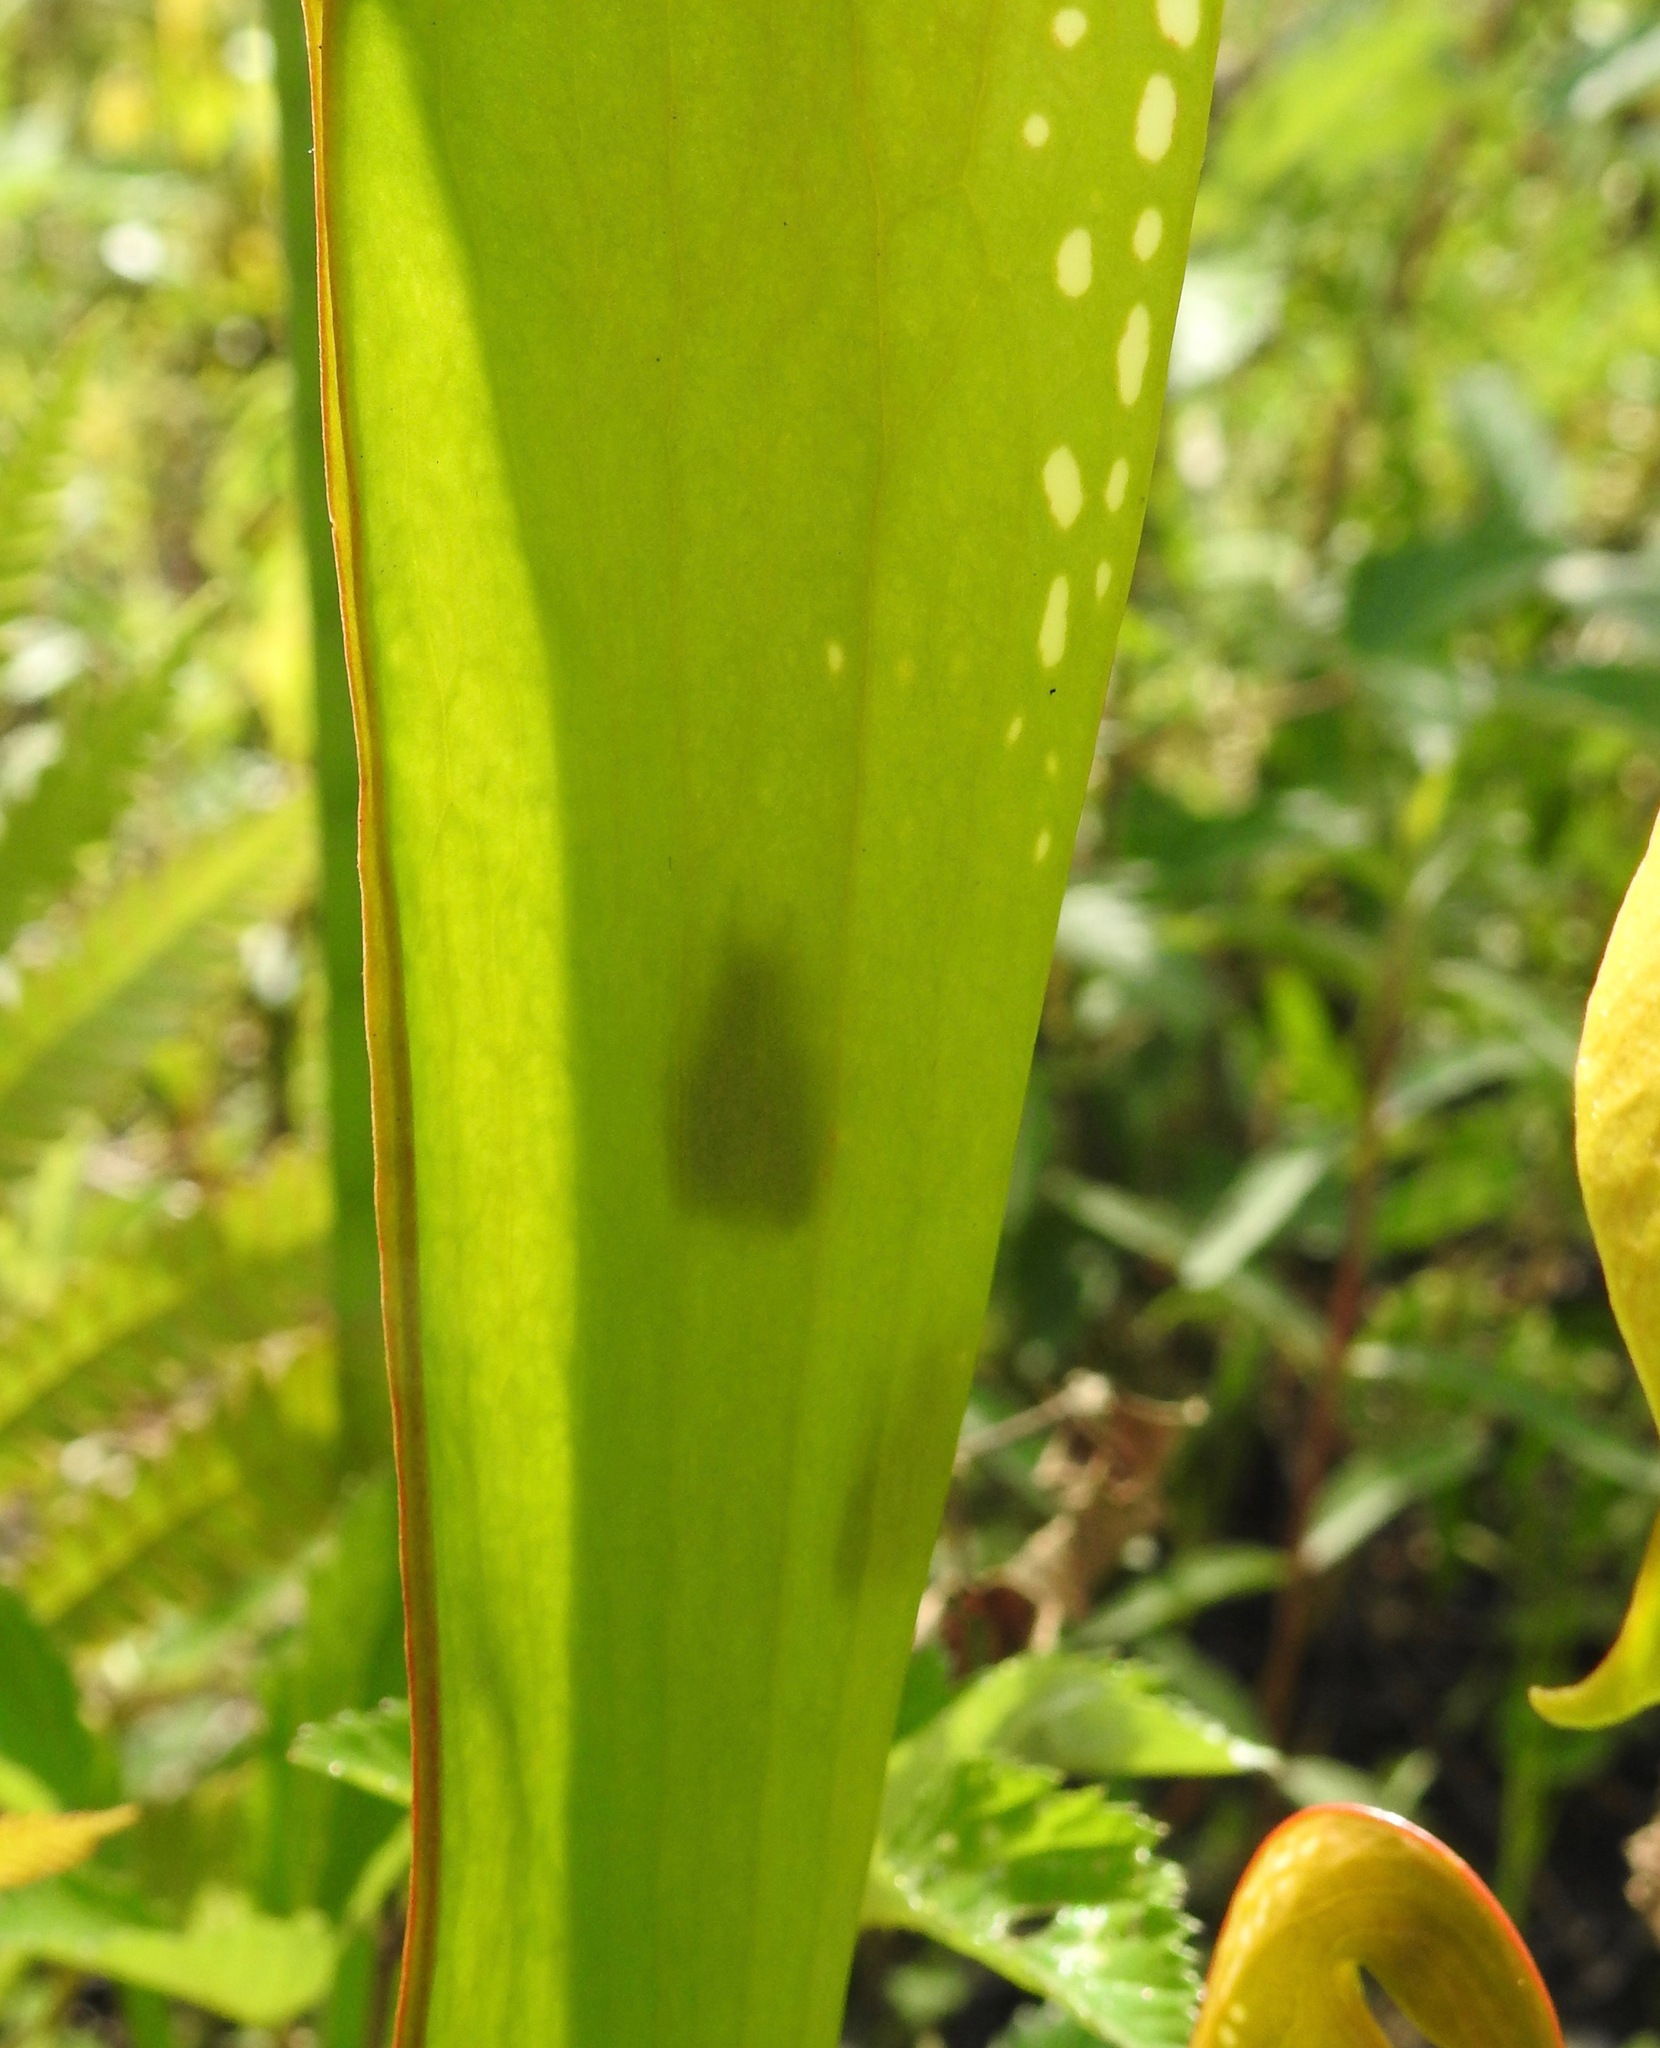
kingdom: Animalia
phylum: Arthropoda
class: Insecta
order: Lepidoptera
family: Noctuidae
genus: Exyra
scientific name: Exyra semicrocea
